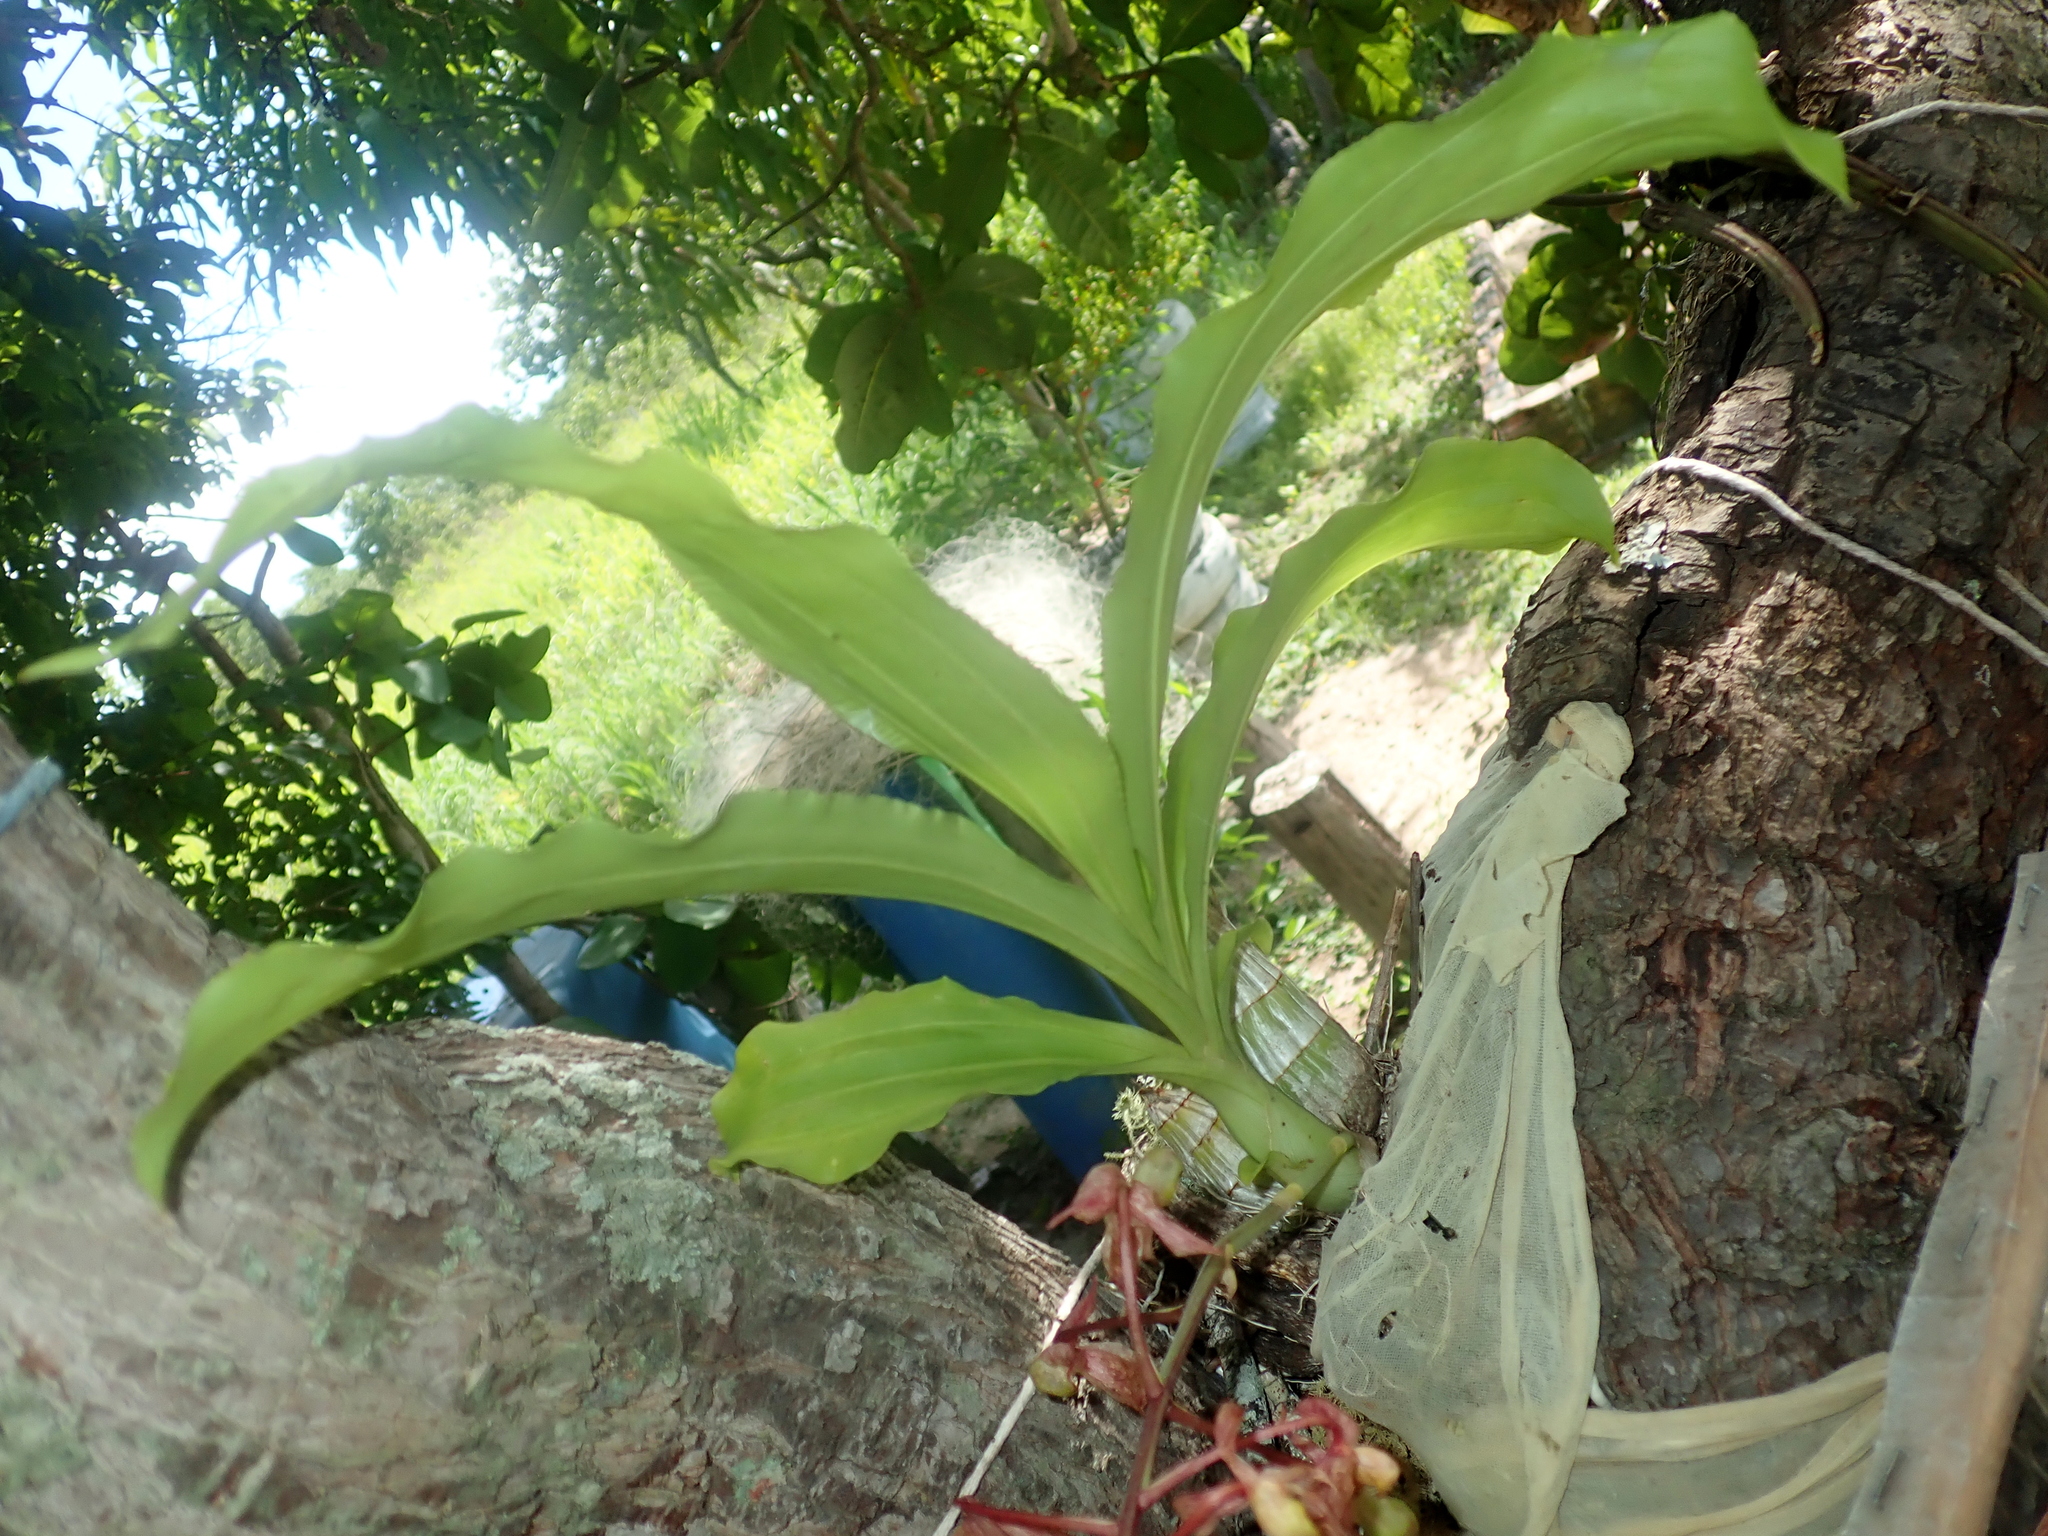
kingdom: Plantae
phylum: Tracheophyta
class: Liliopsida
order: Asparagales
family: Orchidaceae
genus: Catasetum
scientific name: Catasetum confusum
